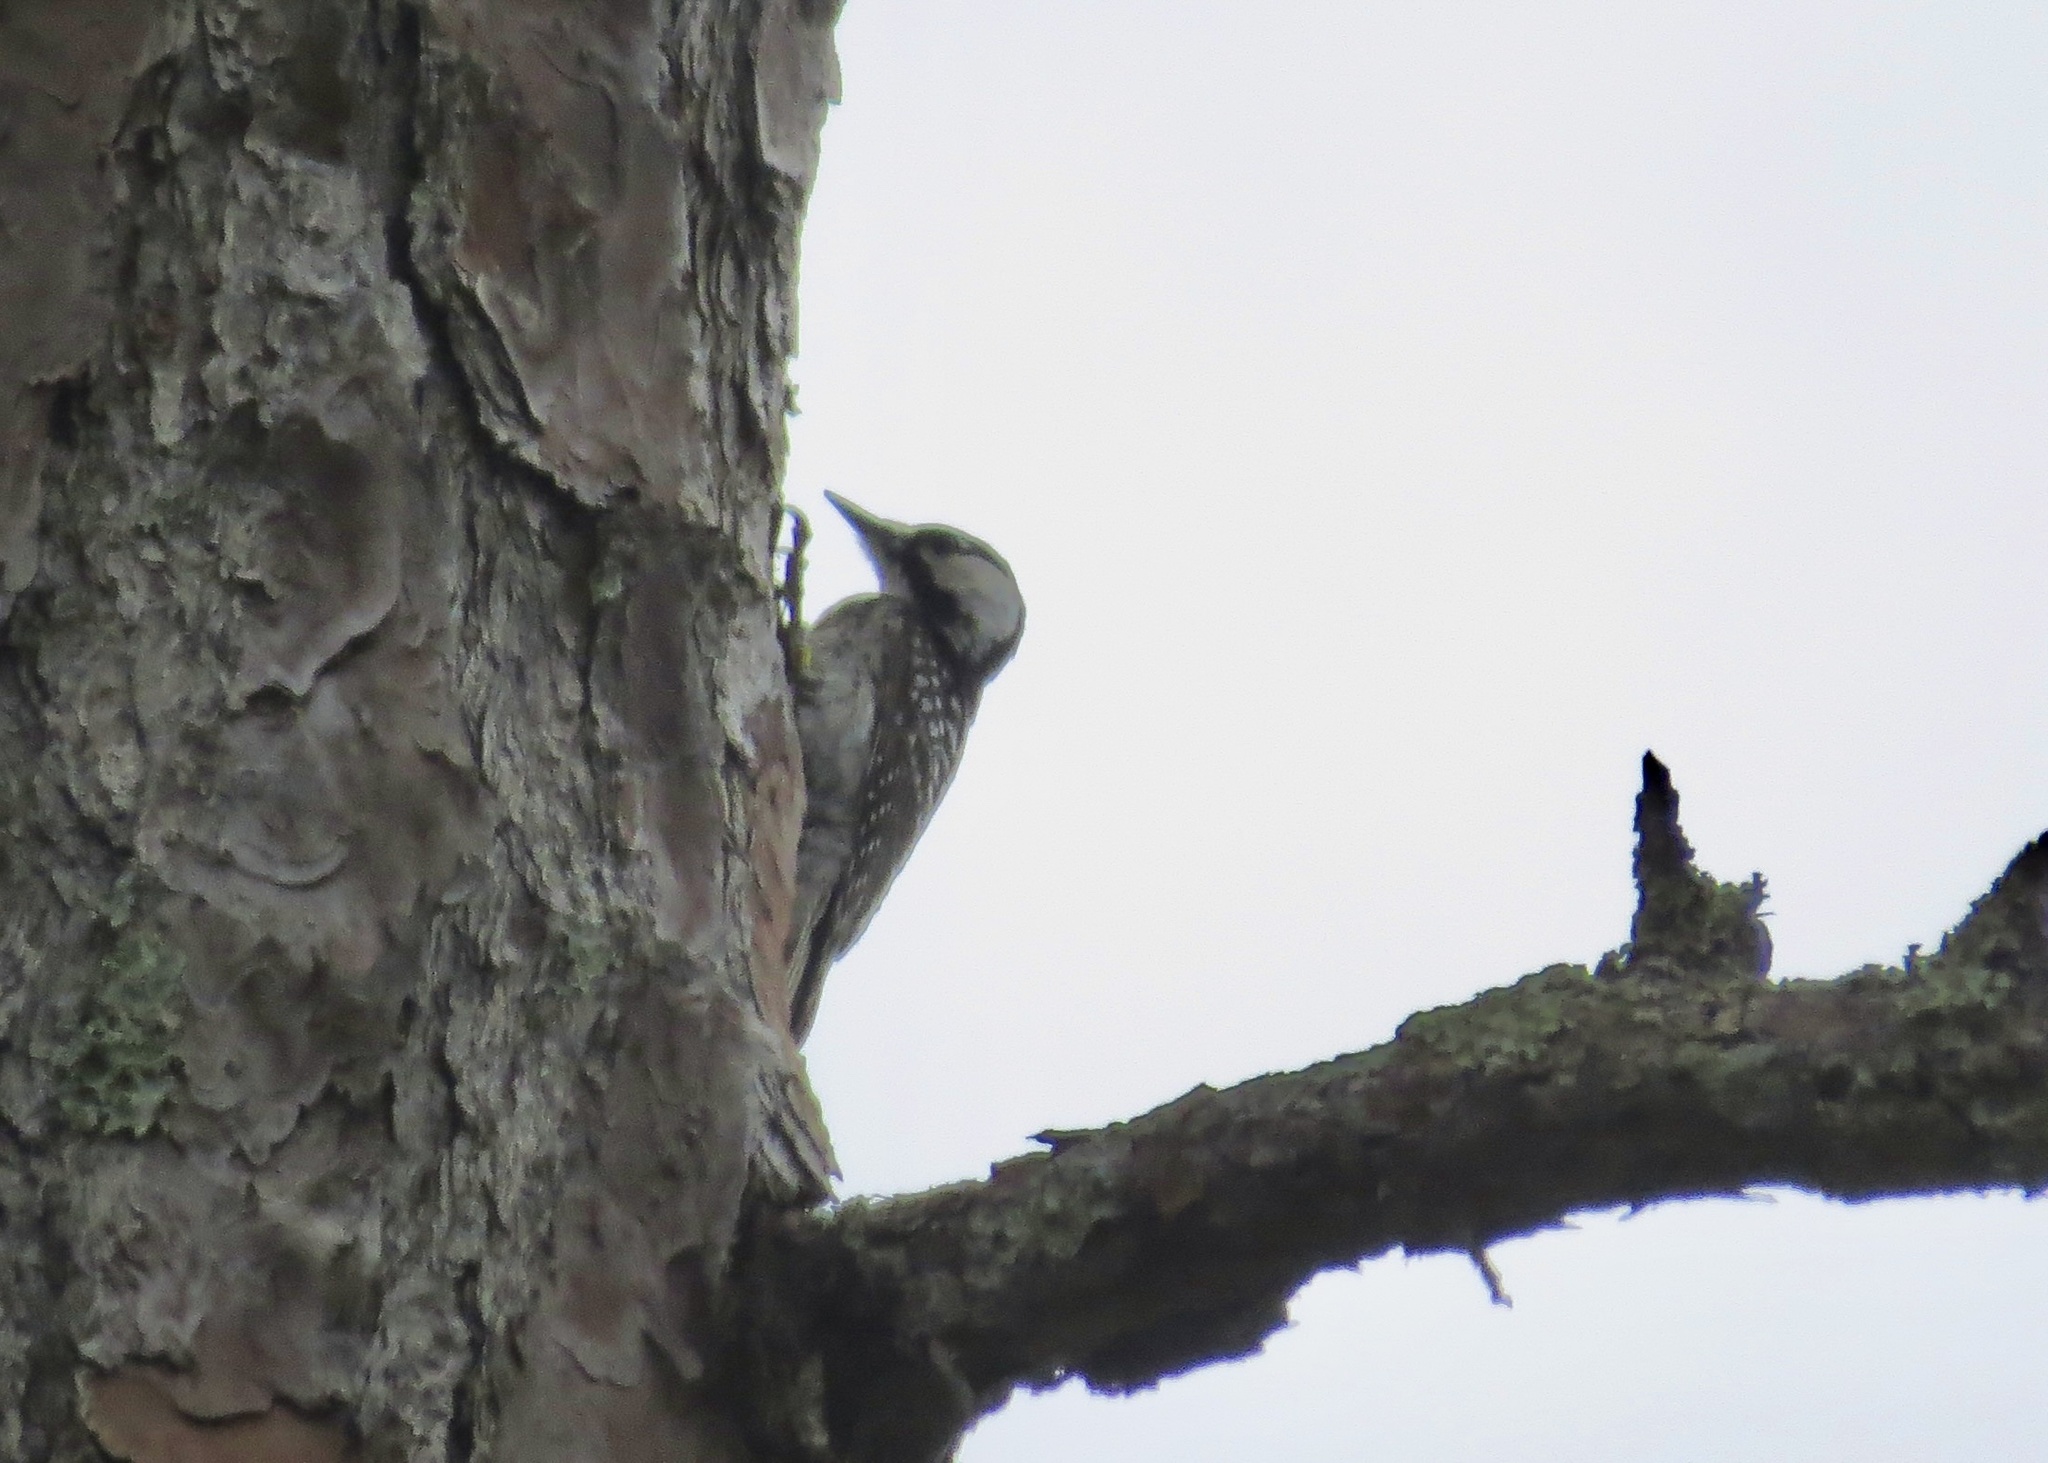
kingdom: Animalia
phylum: Chordata
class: Aves
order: Piciformes
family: Picidae
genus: Leuconotopicus
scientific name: Leuconotopicus borealis
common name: Red-cockaded woodpecker
